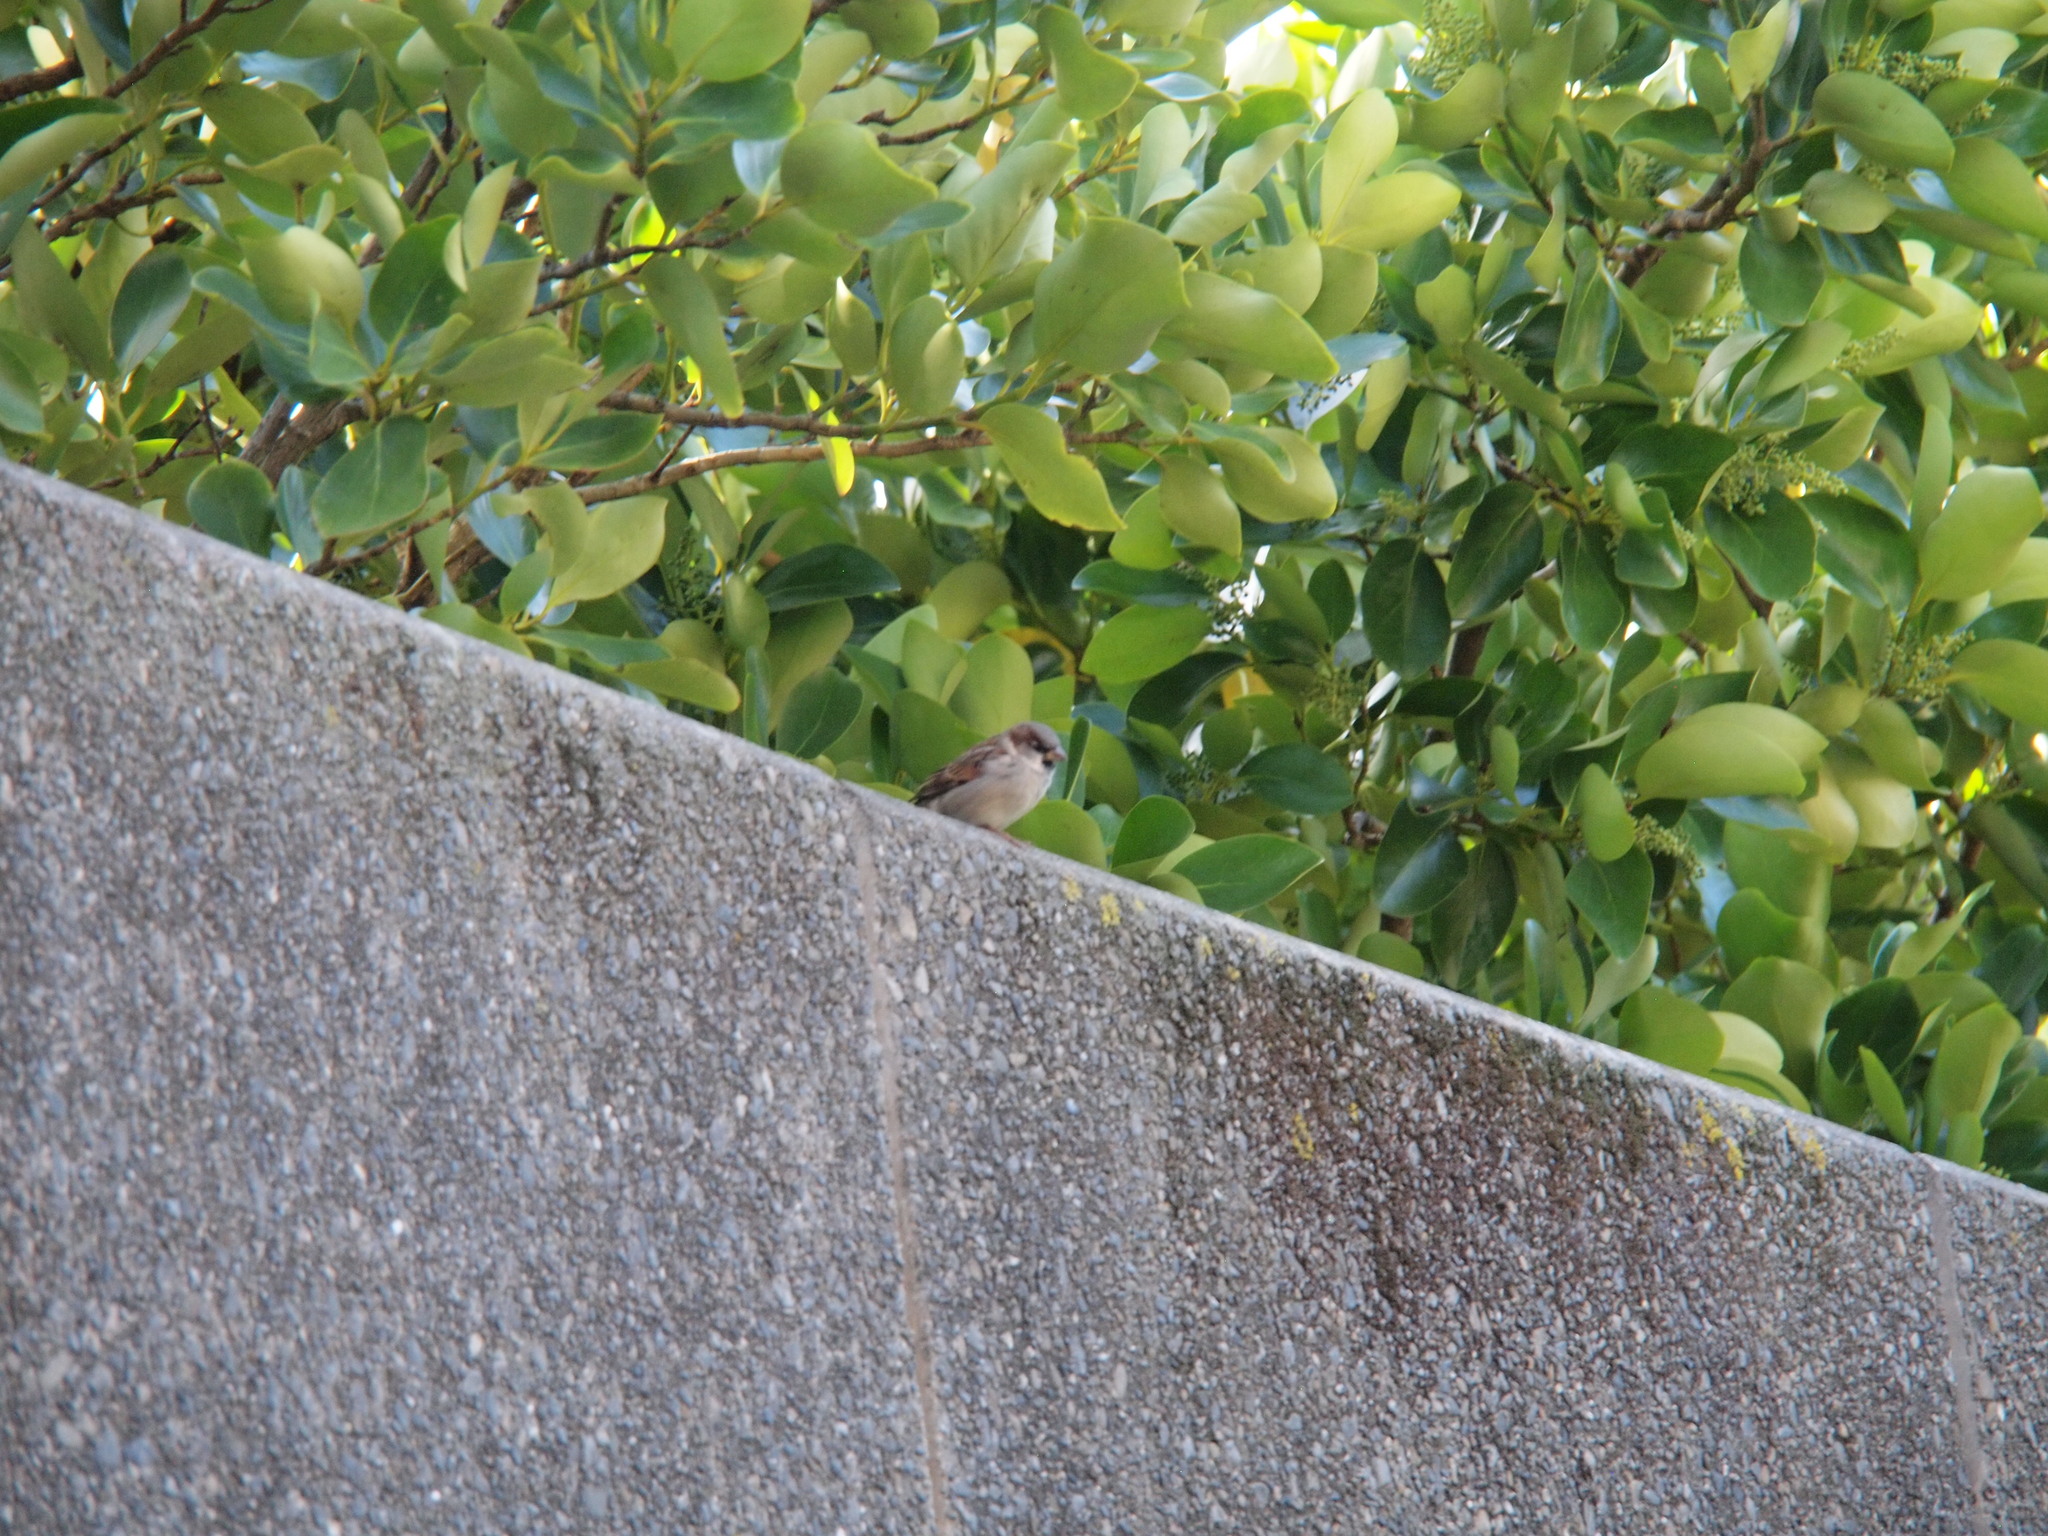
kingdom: Animalia
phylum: Chordata
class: Aves
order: Passeriformes
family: Passeridae
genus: Passer
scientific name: Passer domesticus
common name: House sparrow
